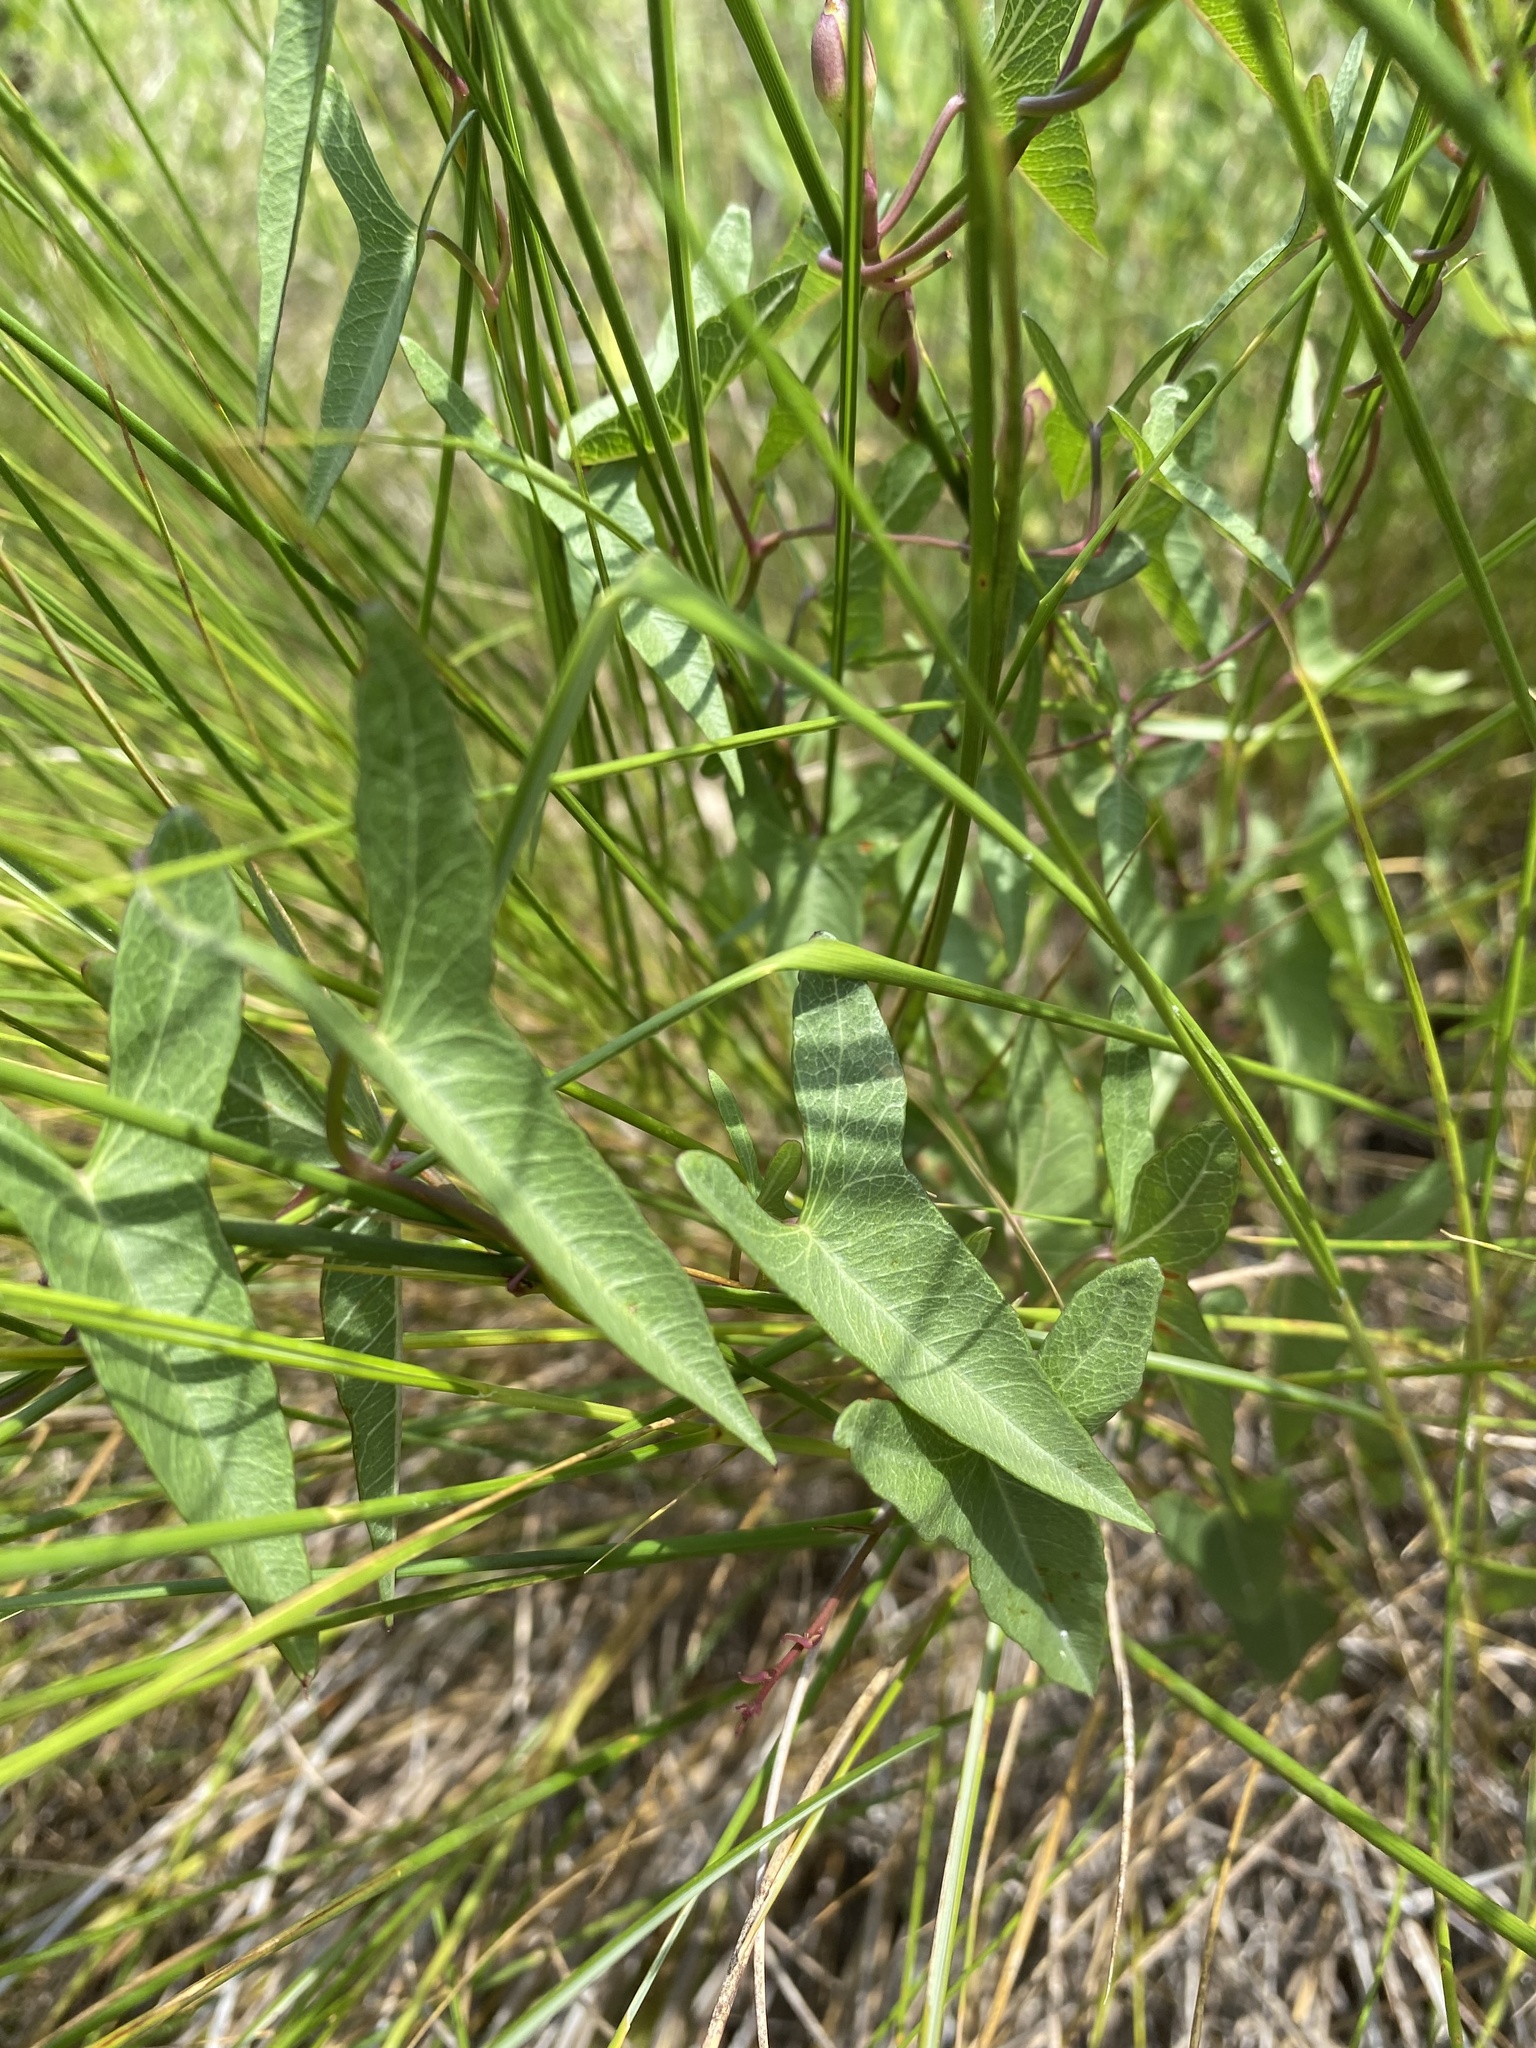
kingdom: Plantae
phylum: Tracheophyta
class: Magnoliopsida
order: Solanales
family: Convolvulaceae
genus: Ipomoea
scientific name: Ipomoea sagittata
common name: Saltmarsh morning glory
